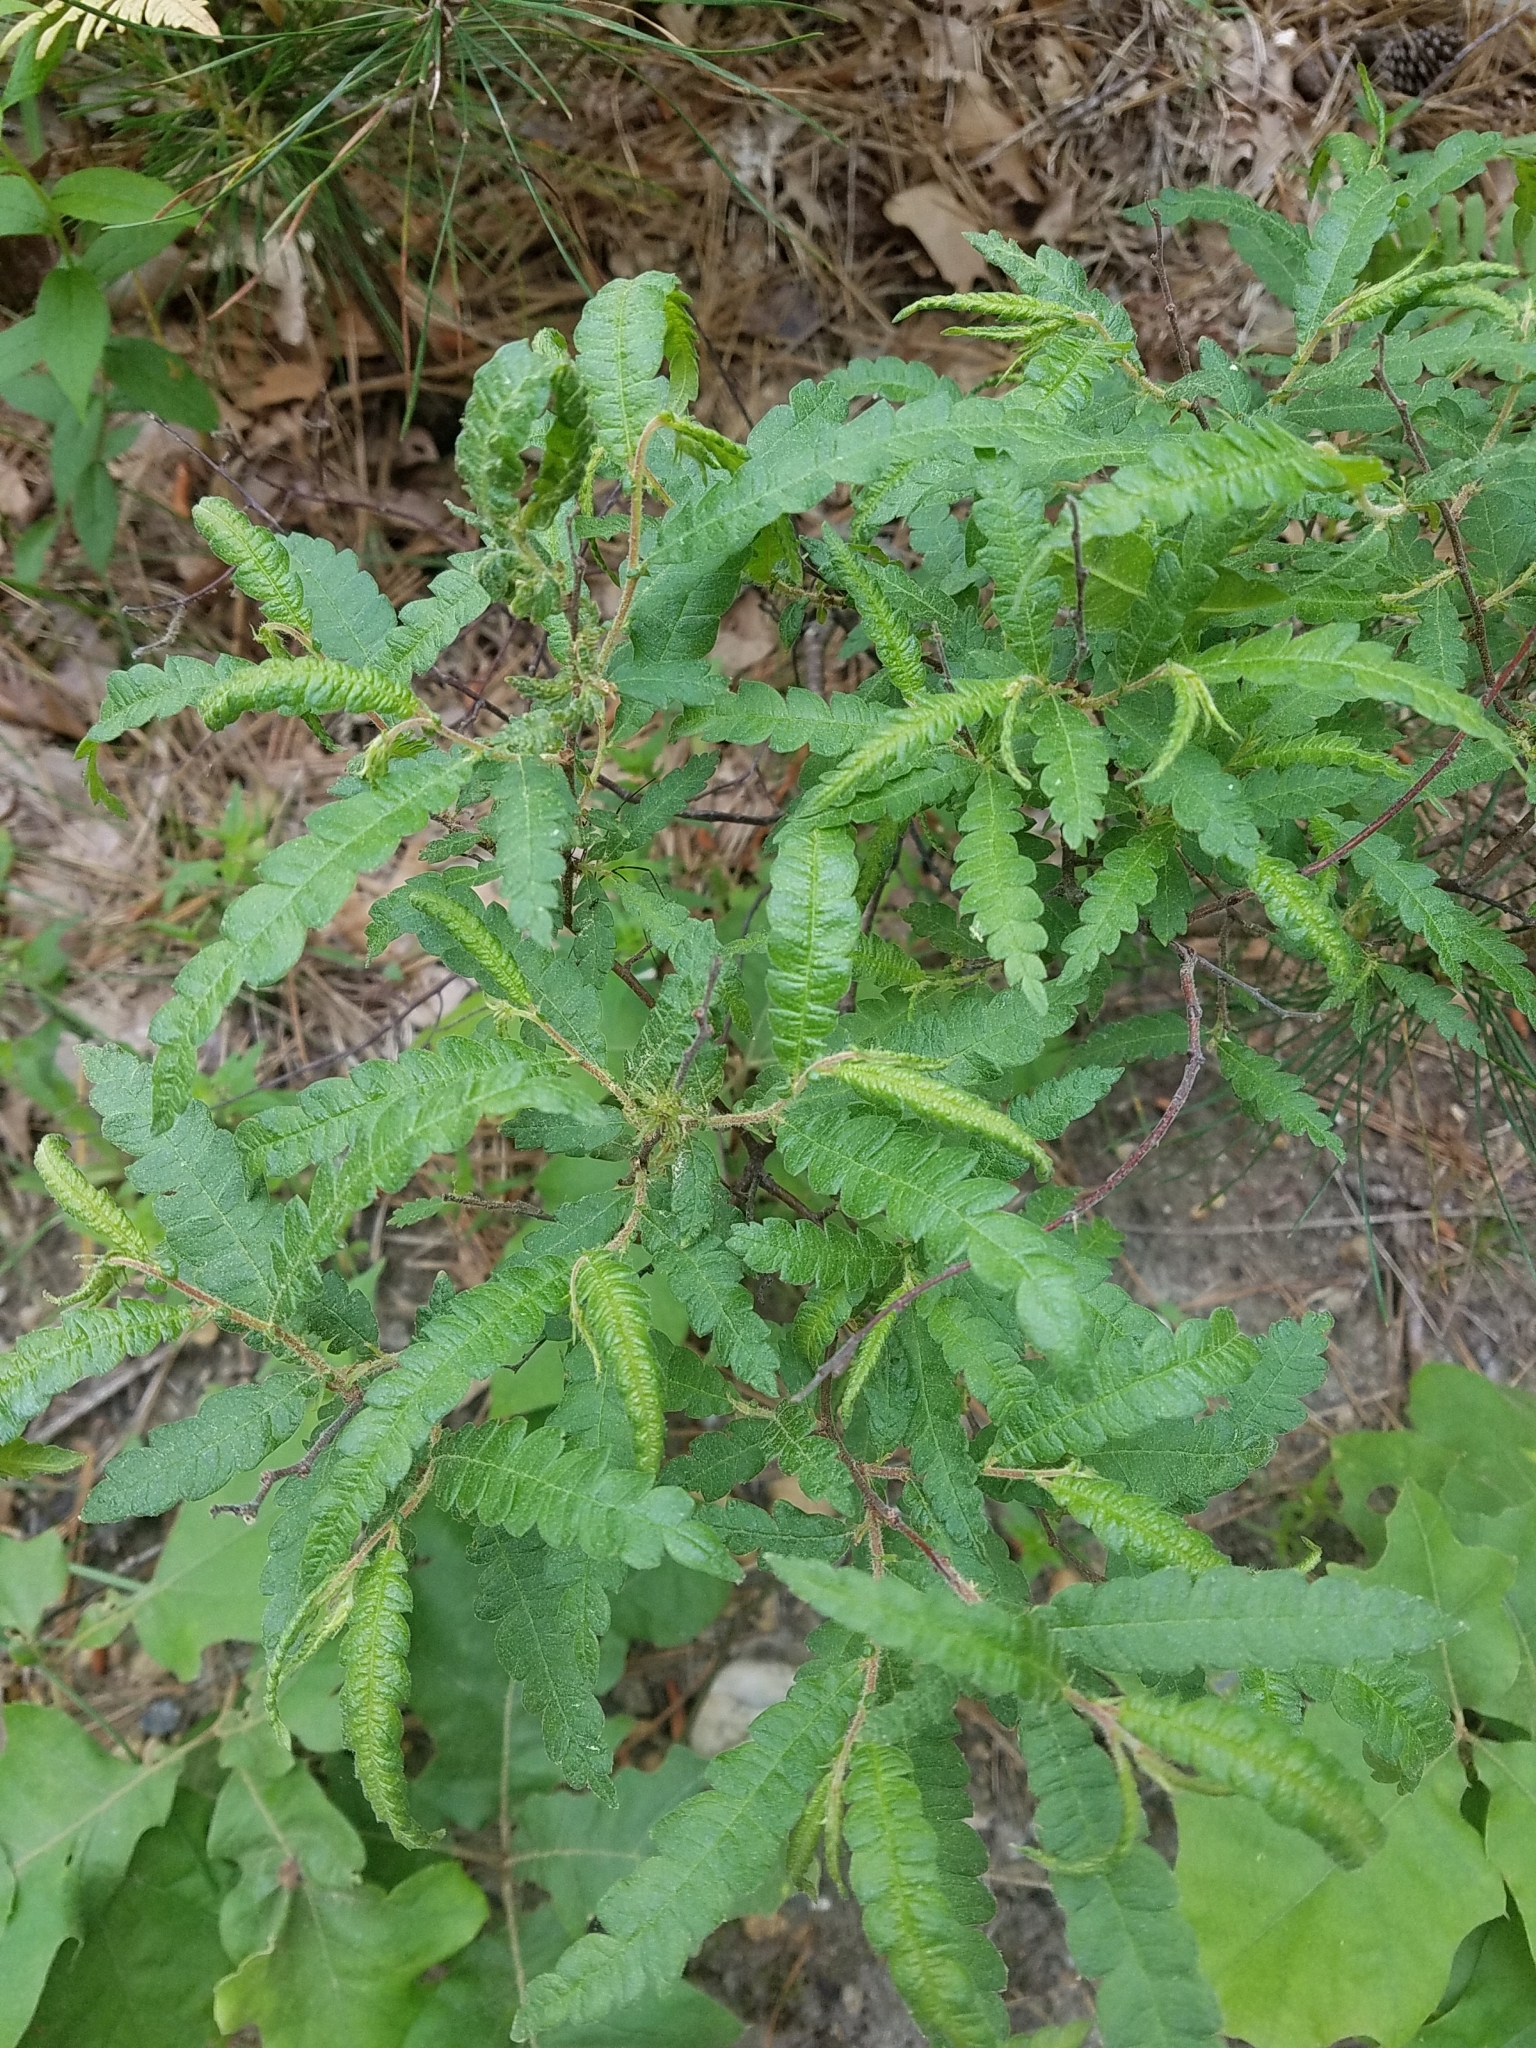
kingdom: Plantae
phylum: Tracheophyta
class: Magnoliopsida
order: Fagales
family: Myricaceae
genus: Comptonia
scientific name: Comptonia peregrina
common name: Sweet-fern
